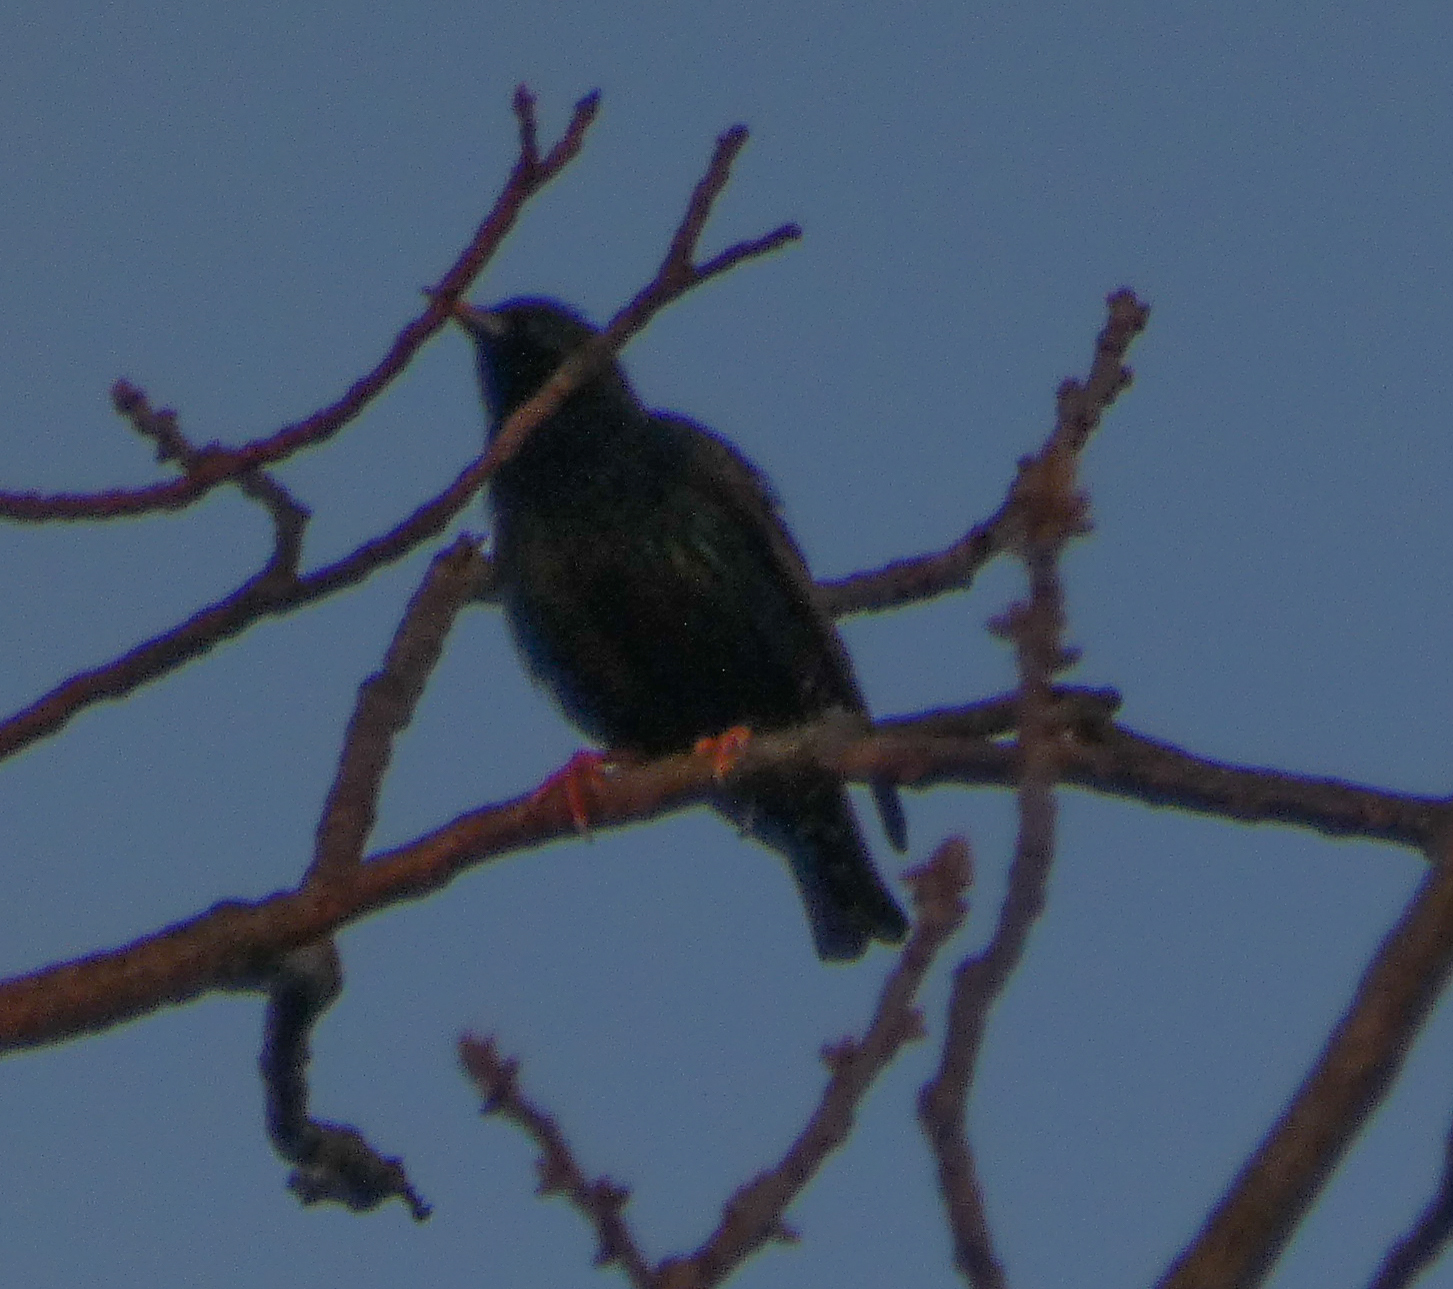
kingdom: Animalia
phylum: Chordata
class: Aves
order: Passeriformes
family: Sturnidae
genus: Sturnus
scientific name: Sturnus vulgaris
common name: Common starling
